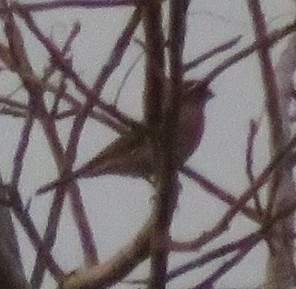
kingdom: Animalia
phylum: Chordata
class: Aves
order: Passeriformes
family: Fringillidae
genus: Haemorhous
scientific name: Haemorhous
